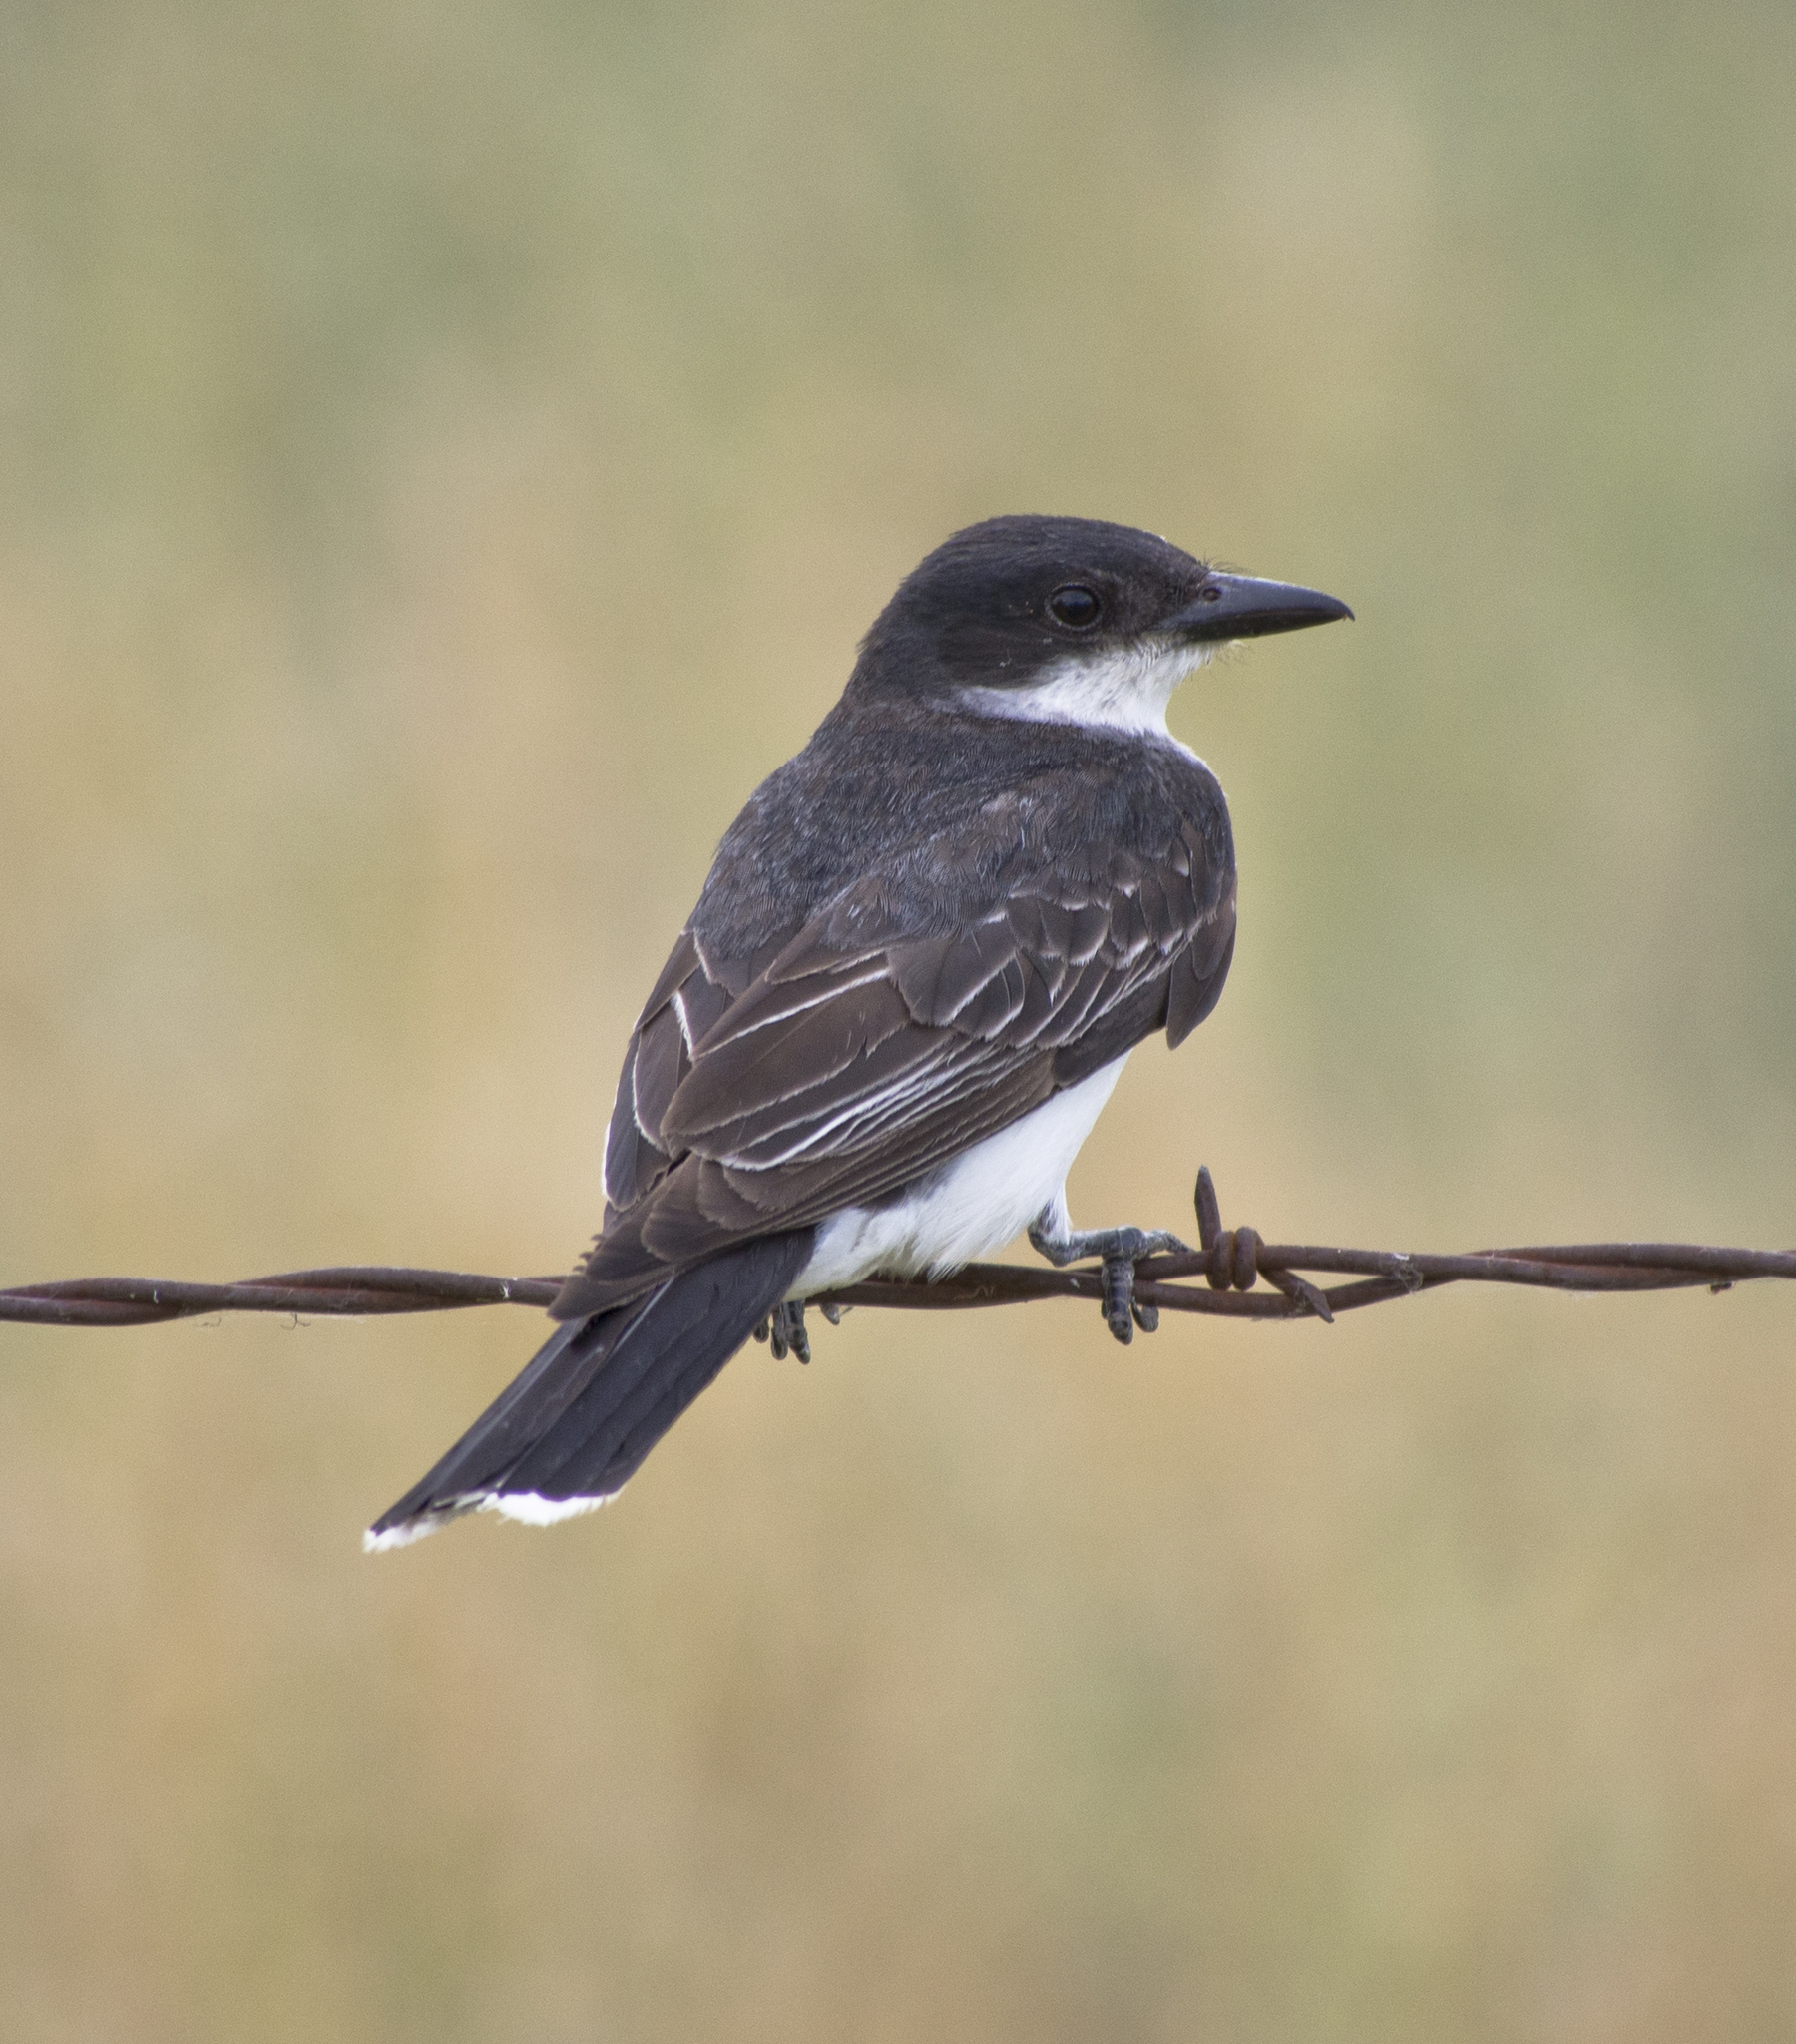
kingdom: Animalia
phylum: Chordata
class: Aves
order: Passeriformes
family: Tyrannidae
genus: Tyrannus
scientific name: Tyrannus tyrannus
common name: Eastern kingbird
